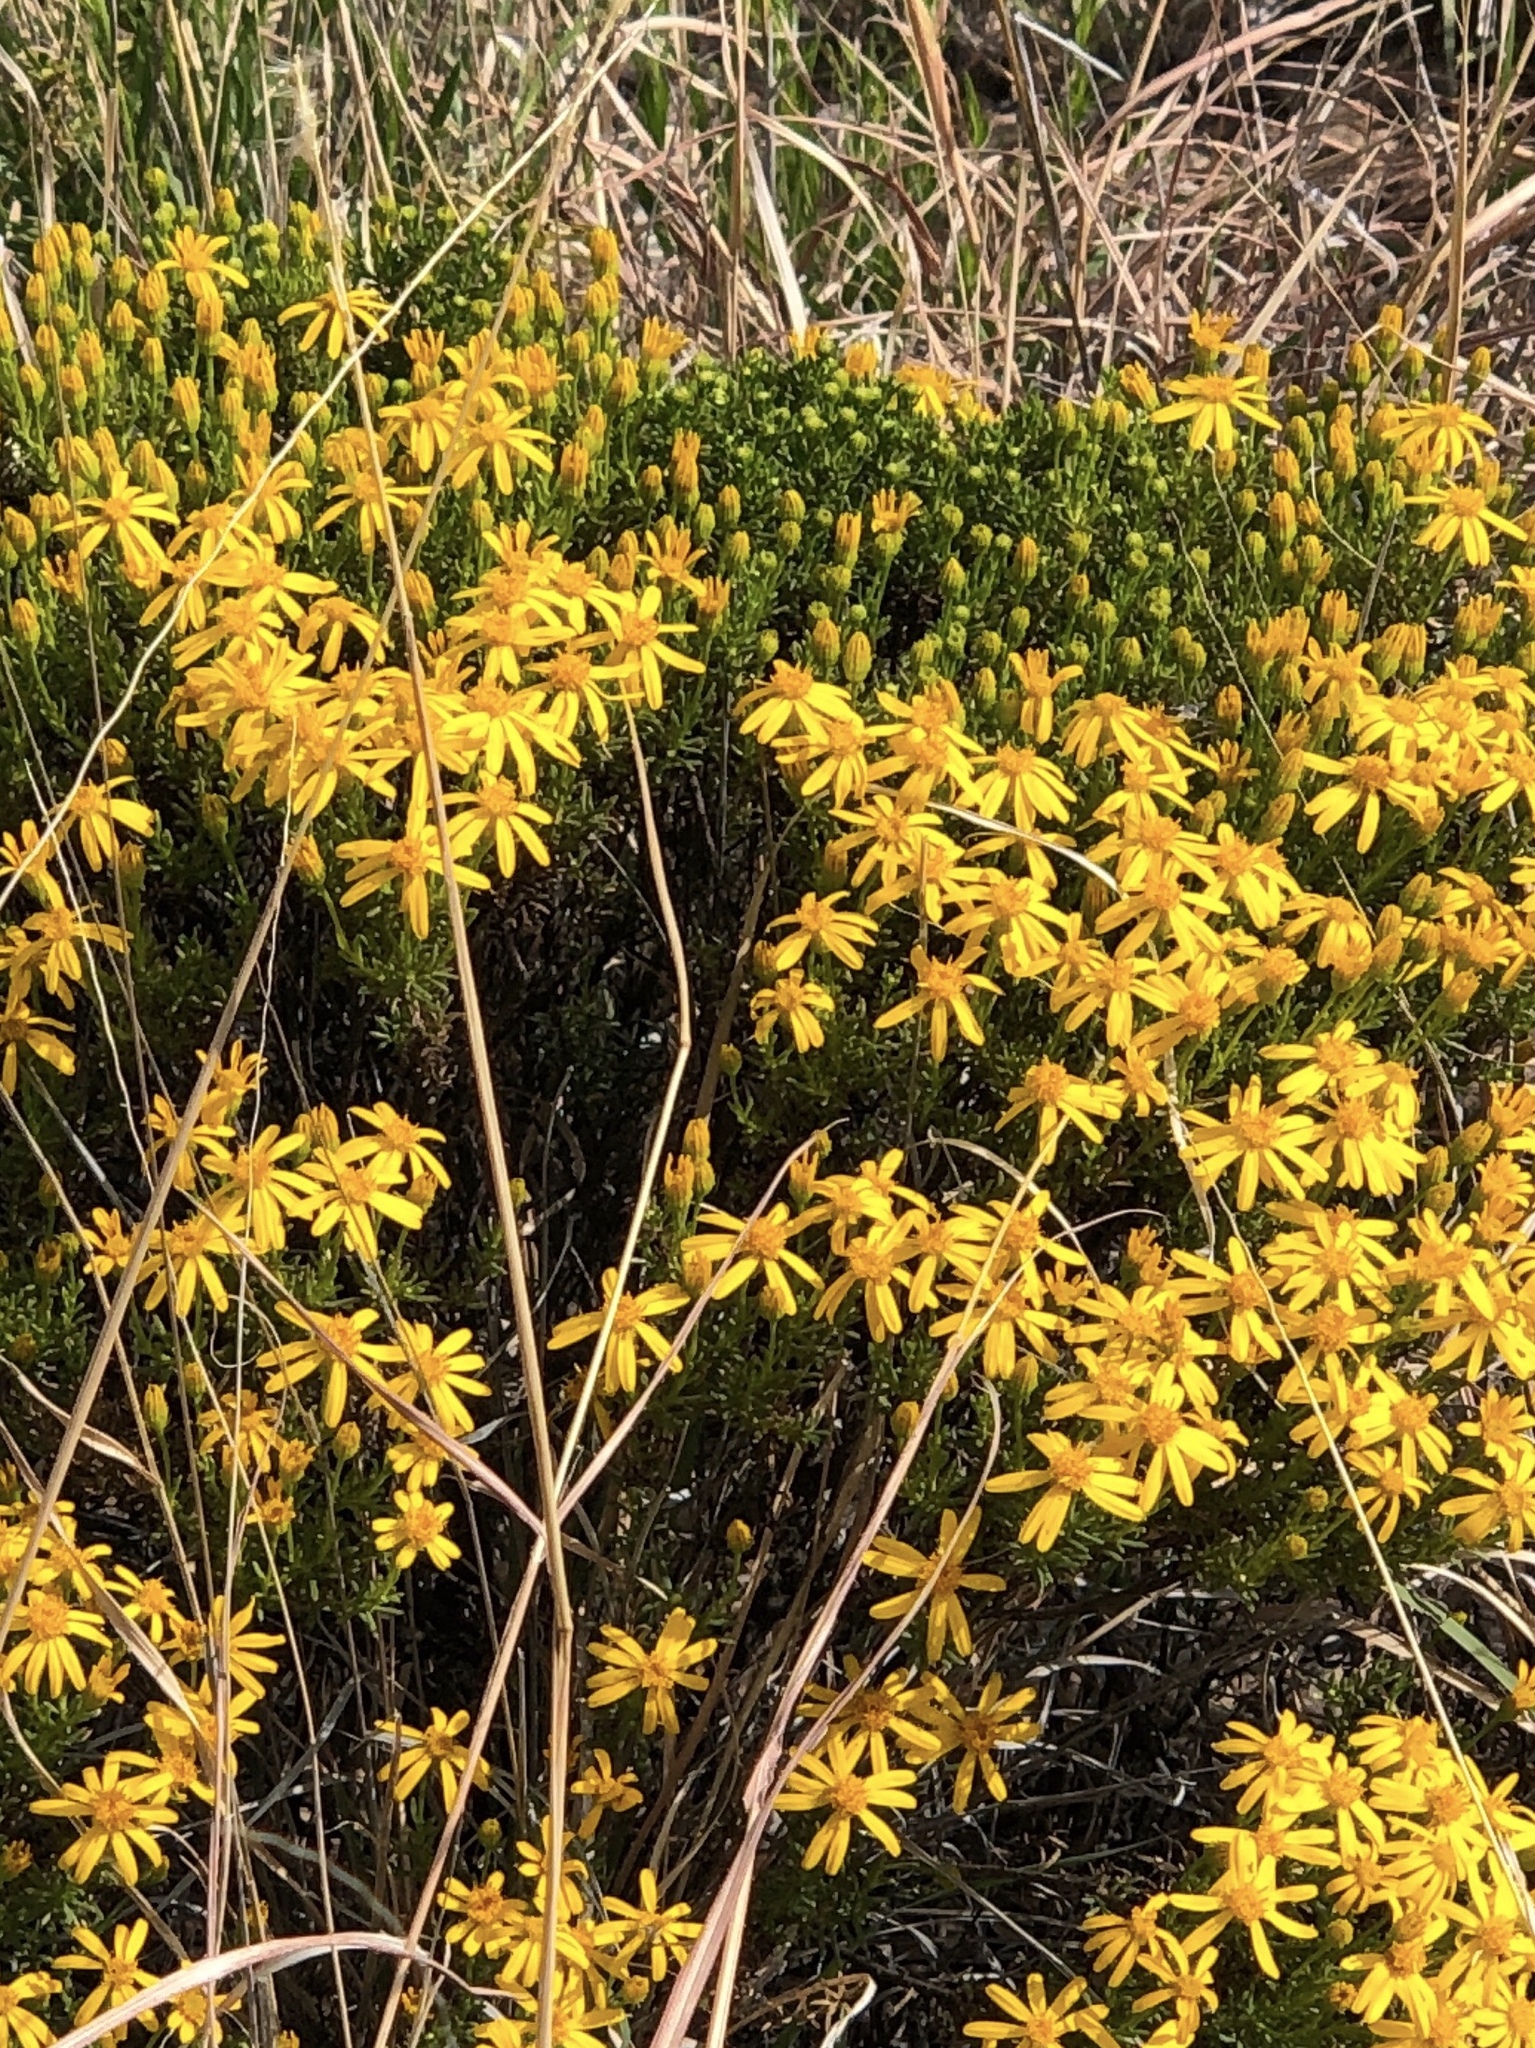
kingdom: Plantae
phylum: Tracheophyta
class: Magnoliopsida
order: Asterales
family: Asteraceae
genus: Chrysactinia
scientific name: Chrysactinia mexicana
